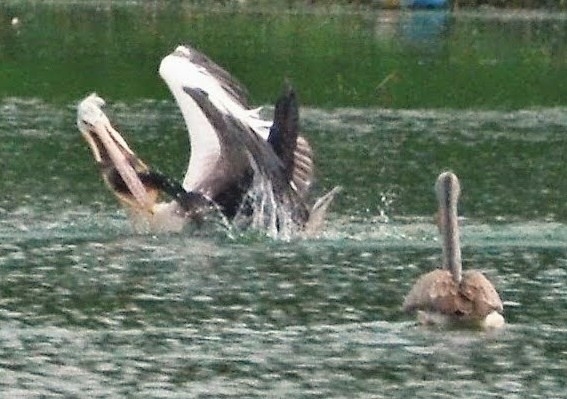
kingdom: Animalia
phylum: Chordata
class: Aves
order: Pelecaniformes
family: Pelecanidae
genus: Pelecanus
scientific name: Pelecanus philippensis
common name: Spot-billed pelican
